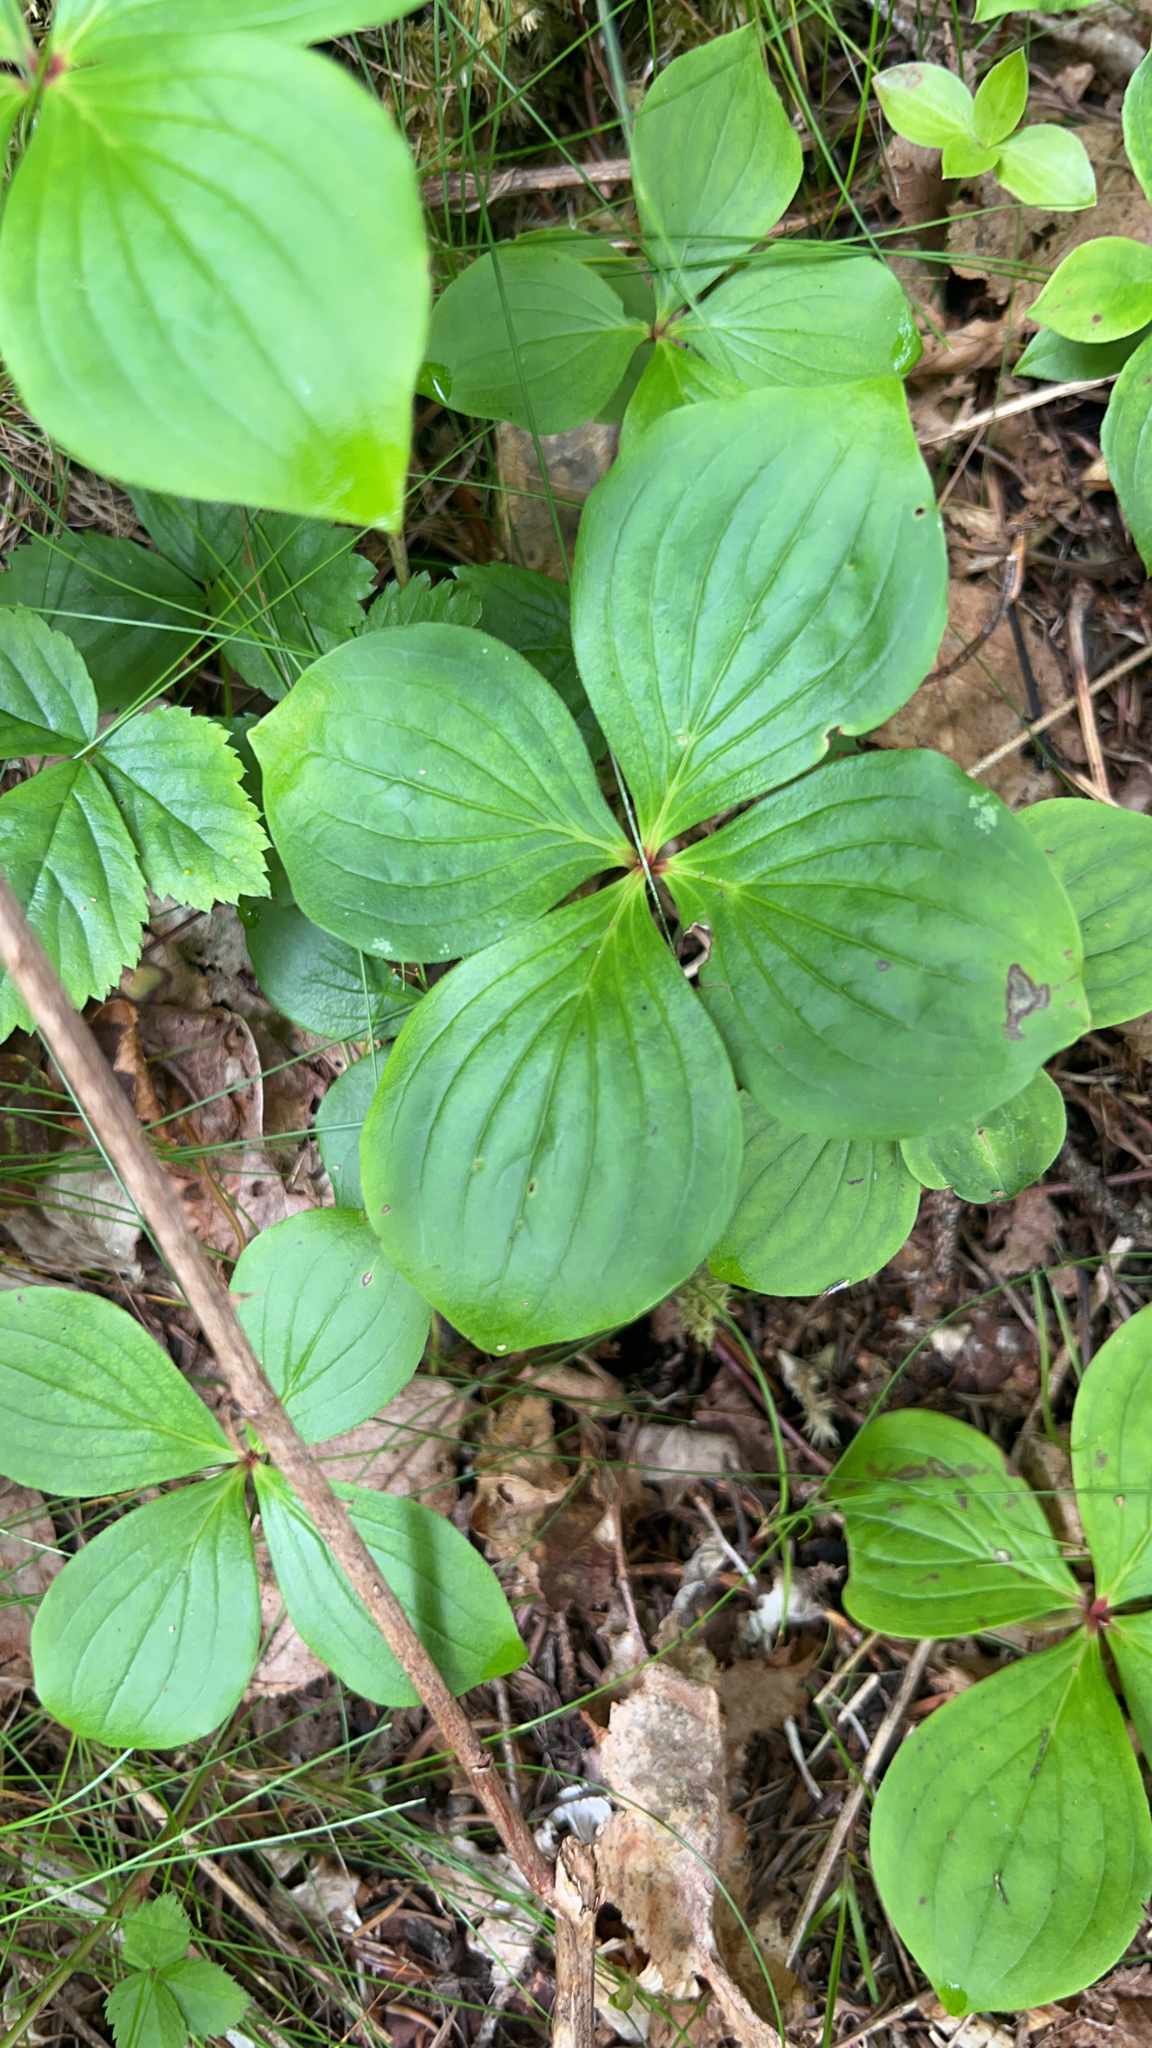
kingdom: Plantae
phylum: Tracheophyta
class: Magnoliopsida
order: Cornales
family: Cornaceae
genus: Cornus
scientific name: Cornus canadensis
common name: Creeping dogwood
